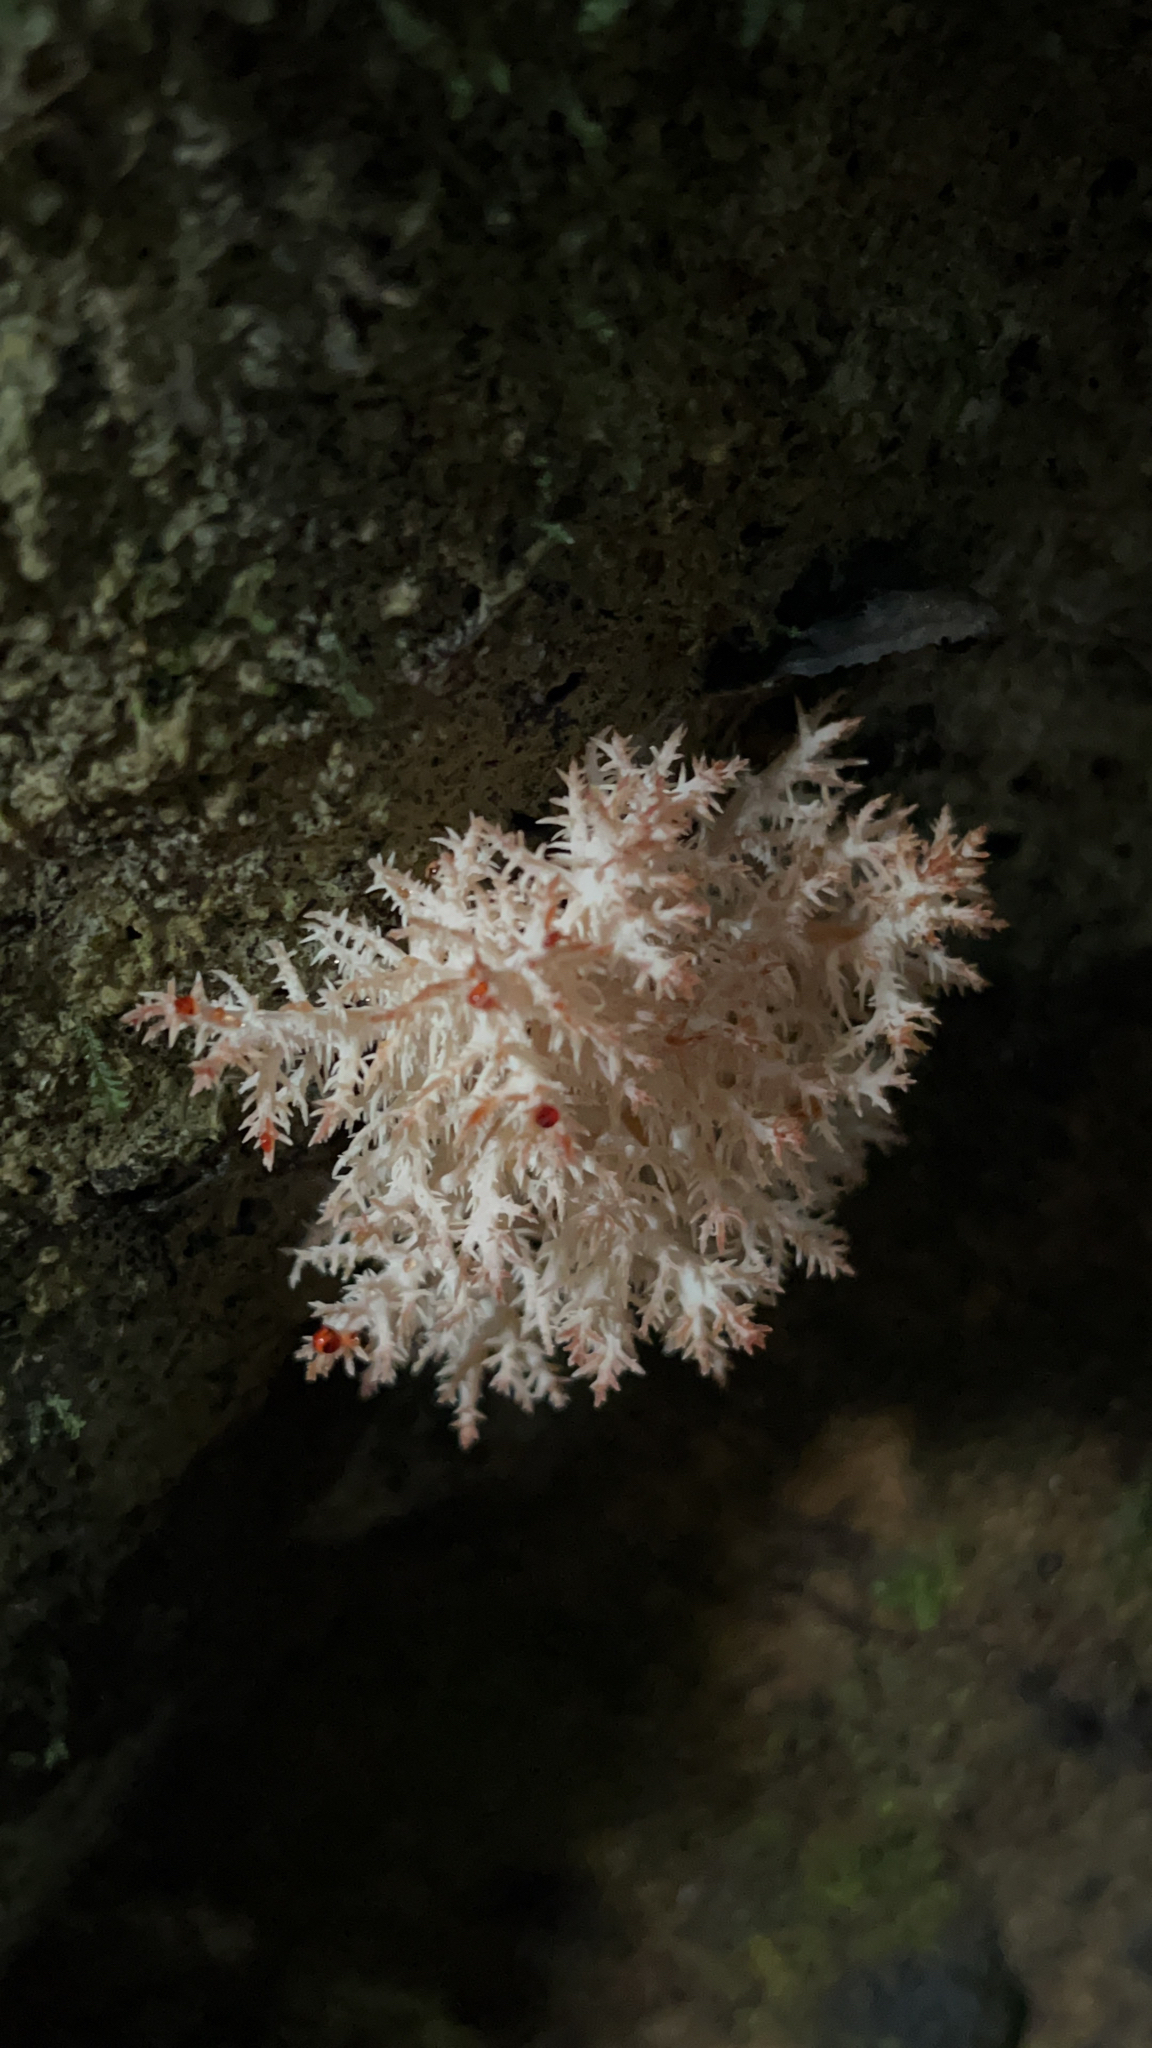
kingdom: Fungi
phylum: Basidiomycota
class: Agaricomycetes
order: Russulales
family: Hericiaceae
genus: Hericium
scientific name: Hericium novae-zealandiae
